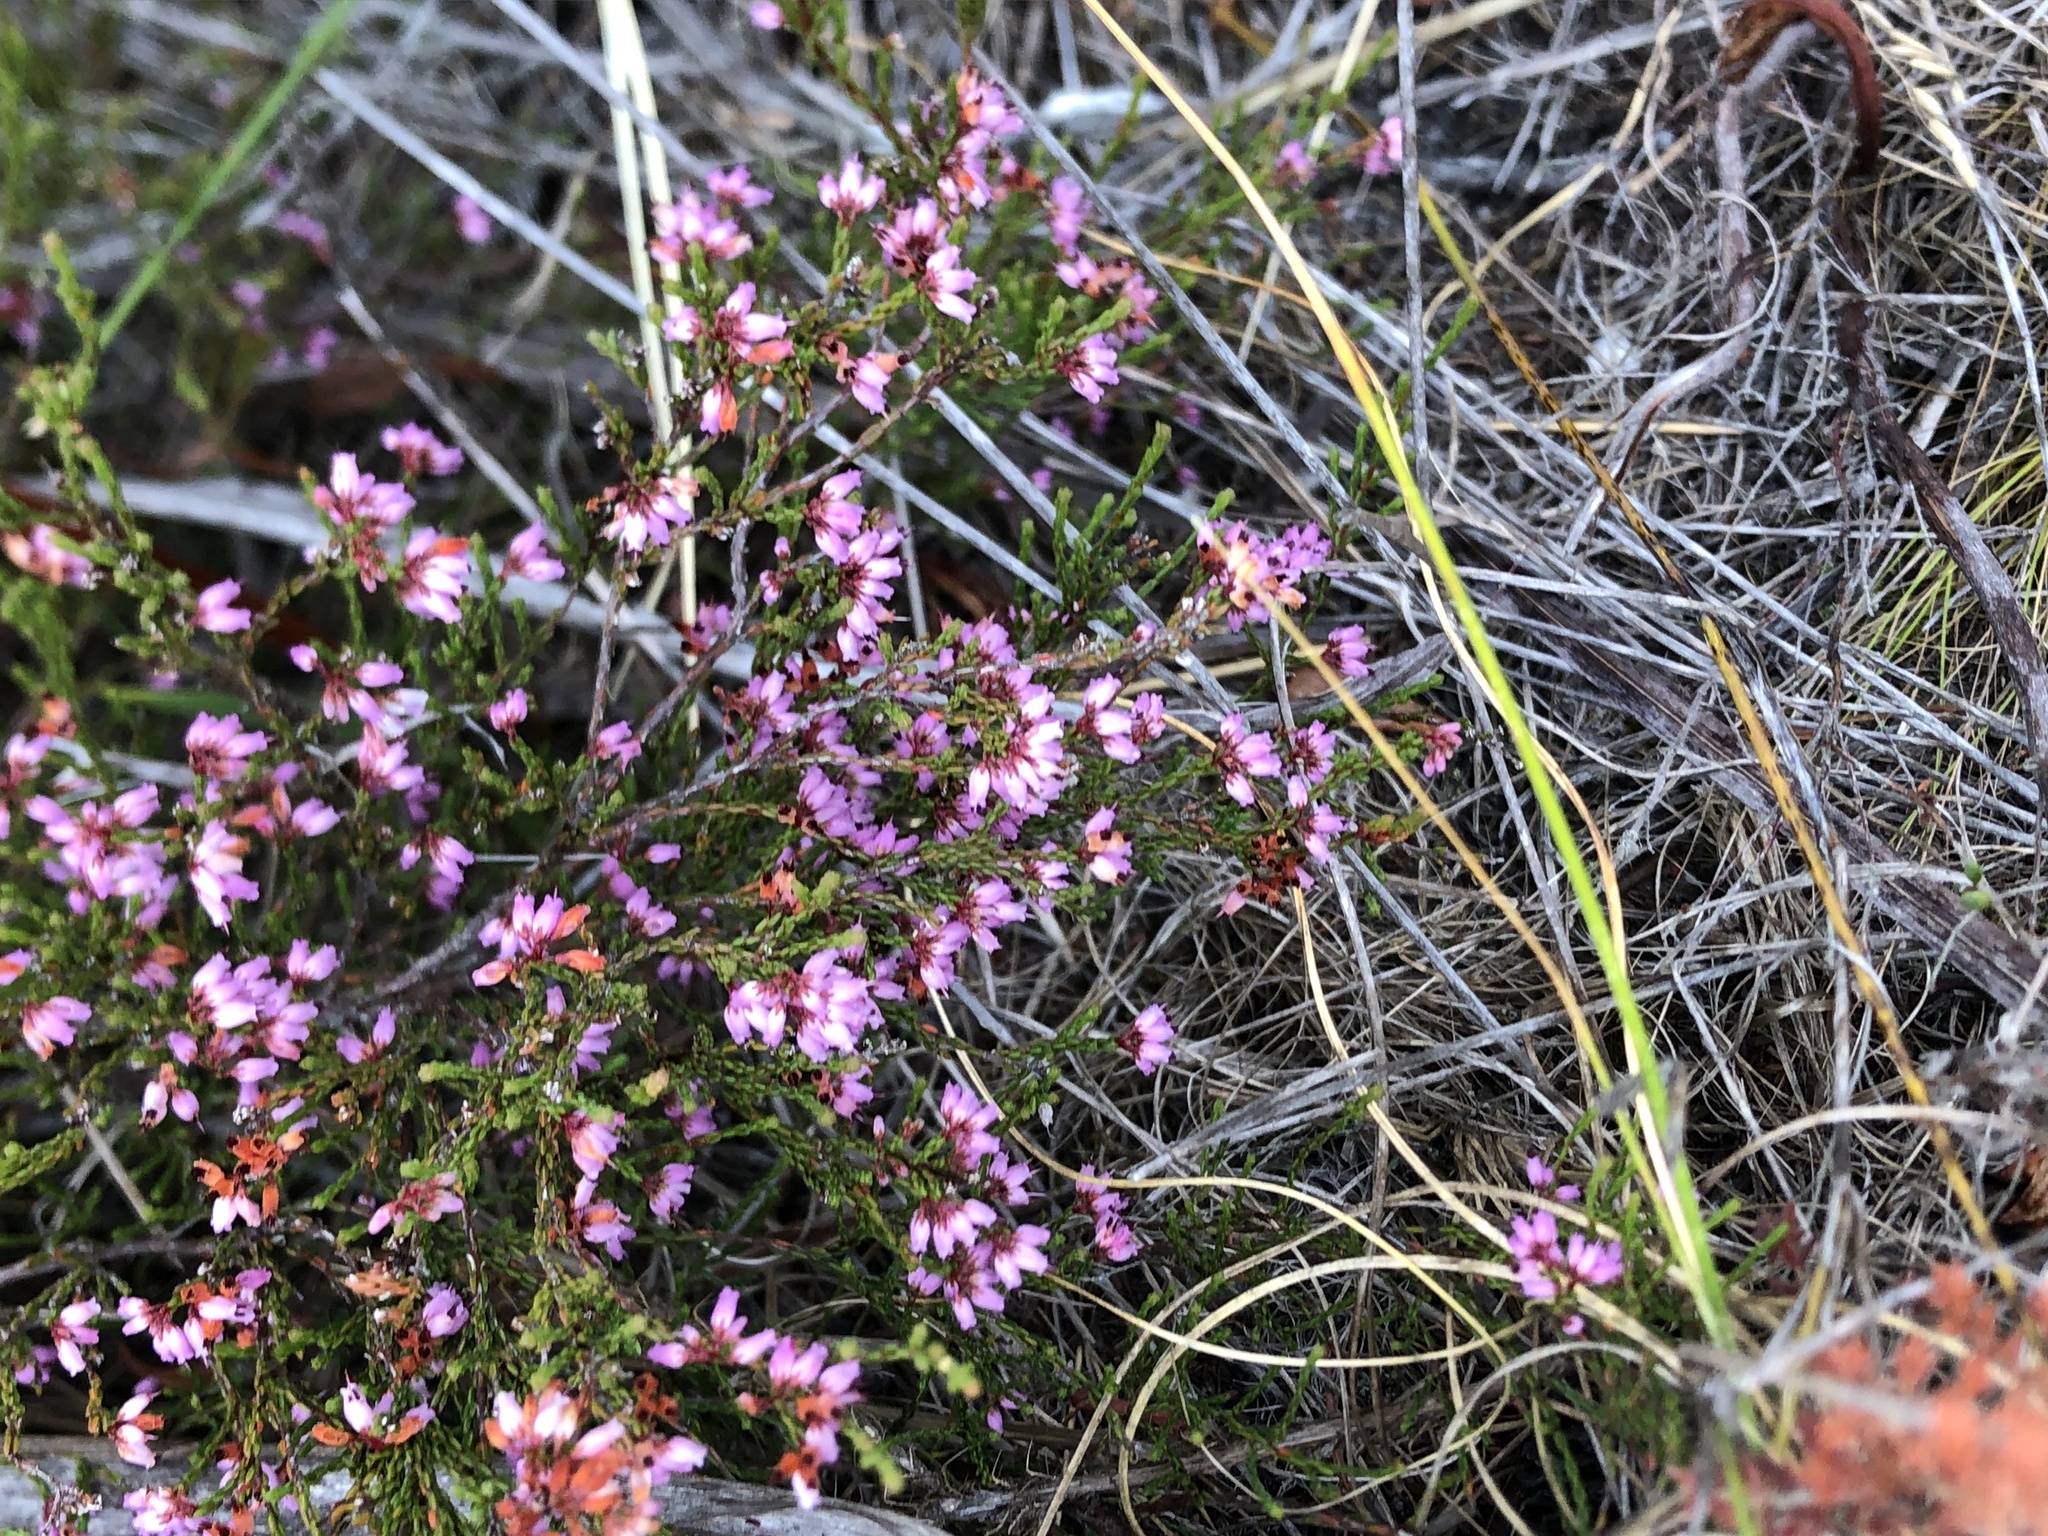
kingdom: Plantae
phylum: Tracheophyta
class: Magnoliopsida
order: Ericales
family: Ericaceae
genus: Erica
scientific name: Erica equisetifolia
